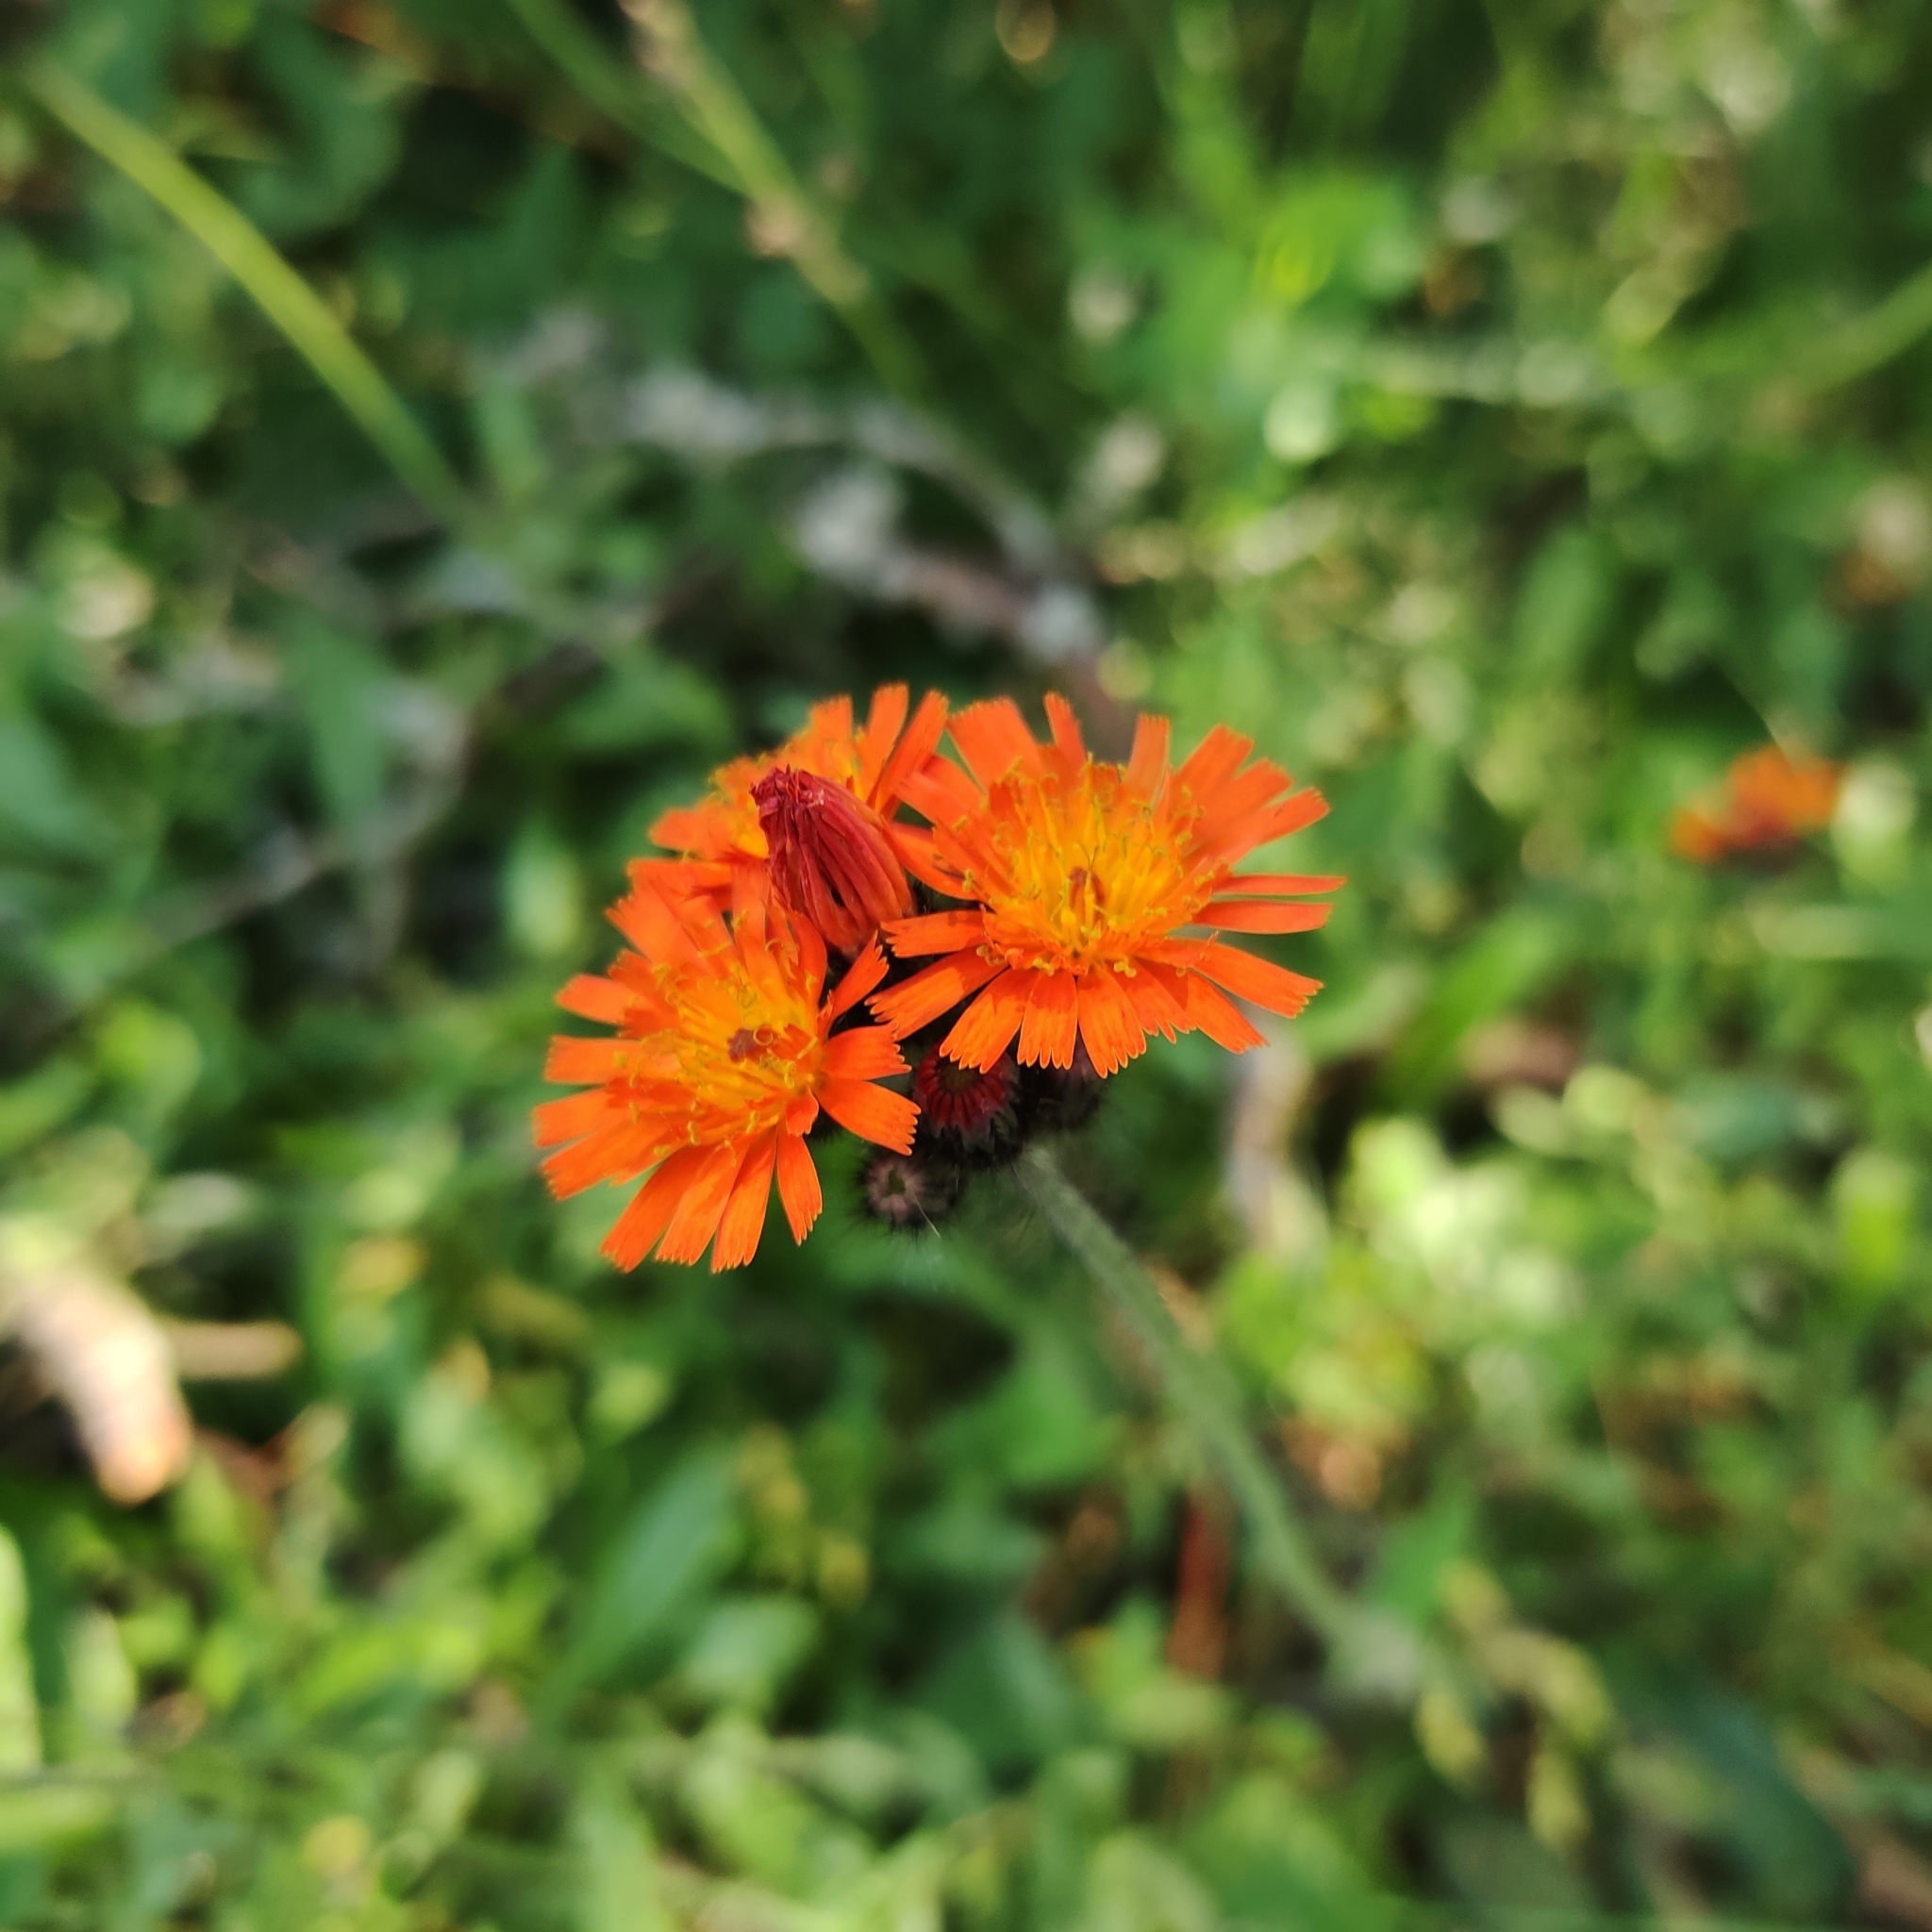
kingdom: Plantae
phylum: Tracheophyta
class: Magnoliopsida
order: Asterales
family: Asteraceae
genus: Pilosella
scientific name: Pilosella aurantiaca
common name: Fox-and-cubs
